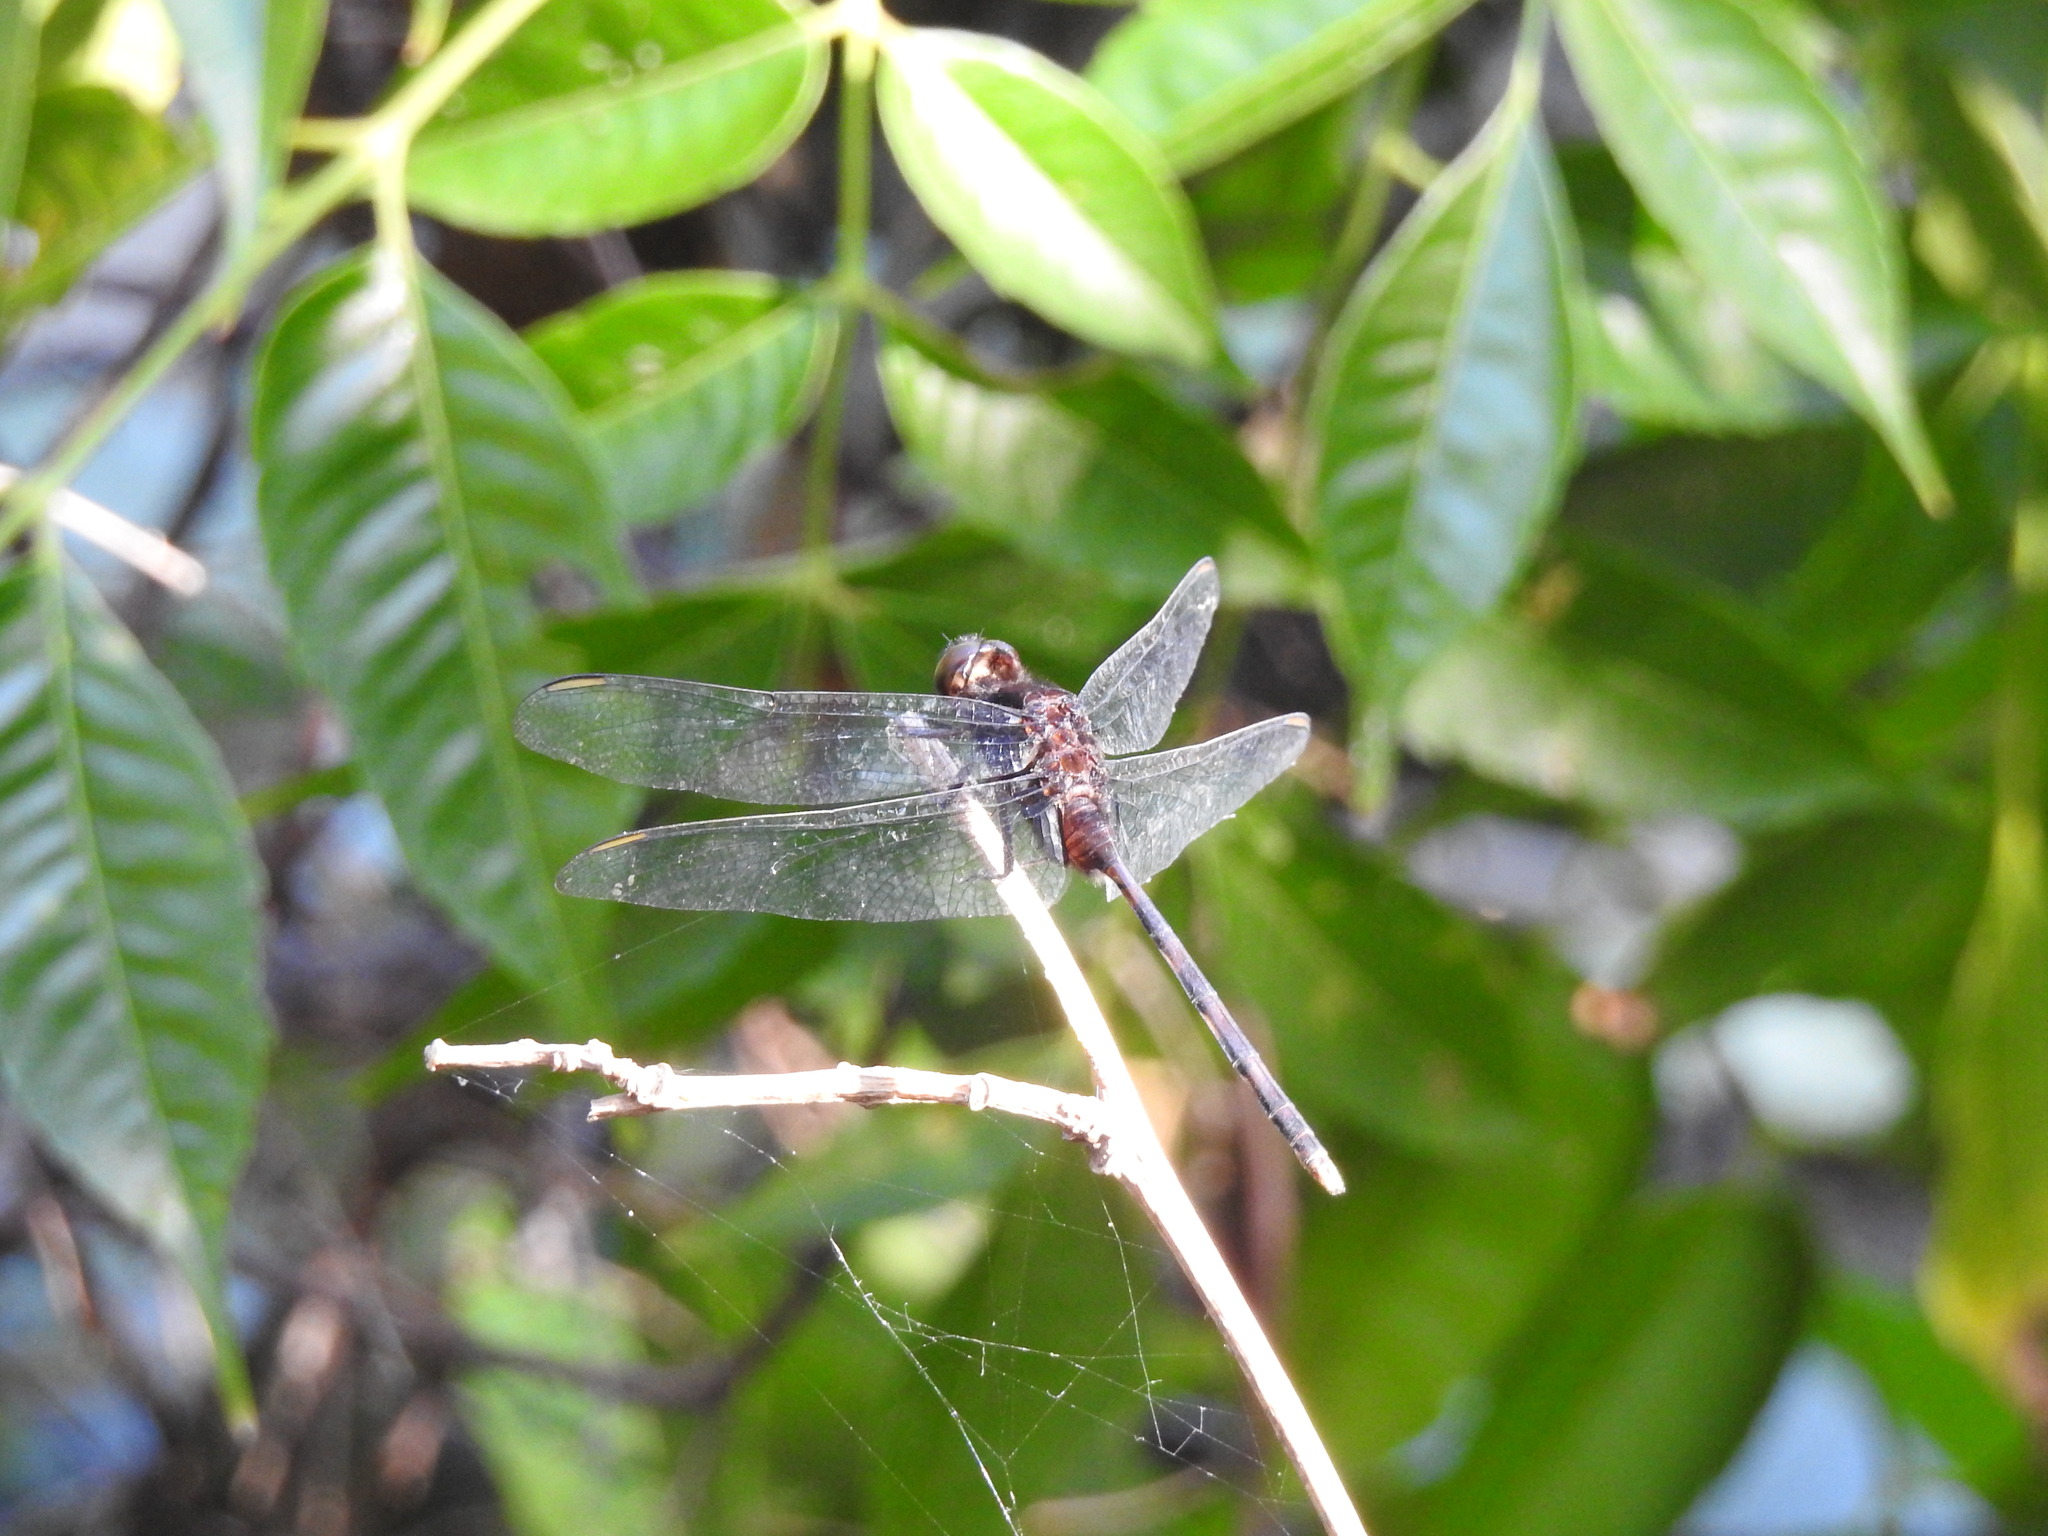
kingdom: Animalia
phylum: Arthropoda
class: Insecta
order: Odonata
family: Libellulidae
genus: Erythemis
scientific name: Erythemis plebeja
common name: Pin-tailed pondhawk
